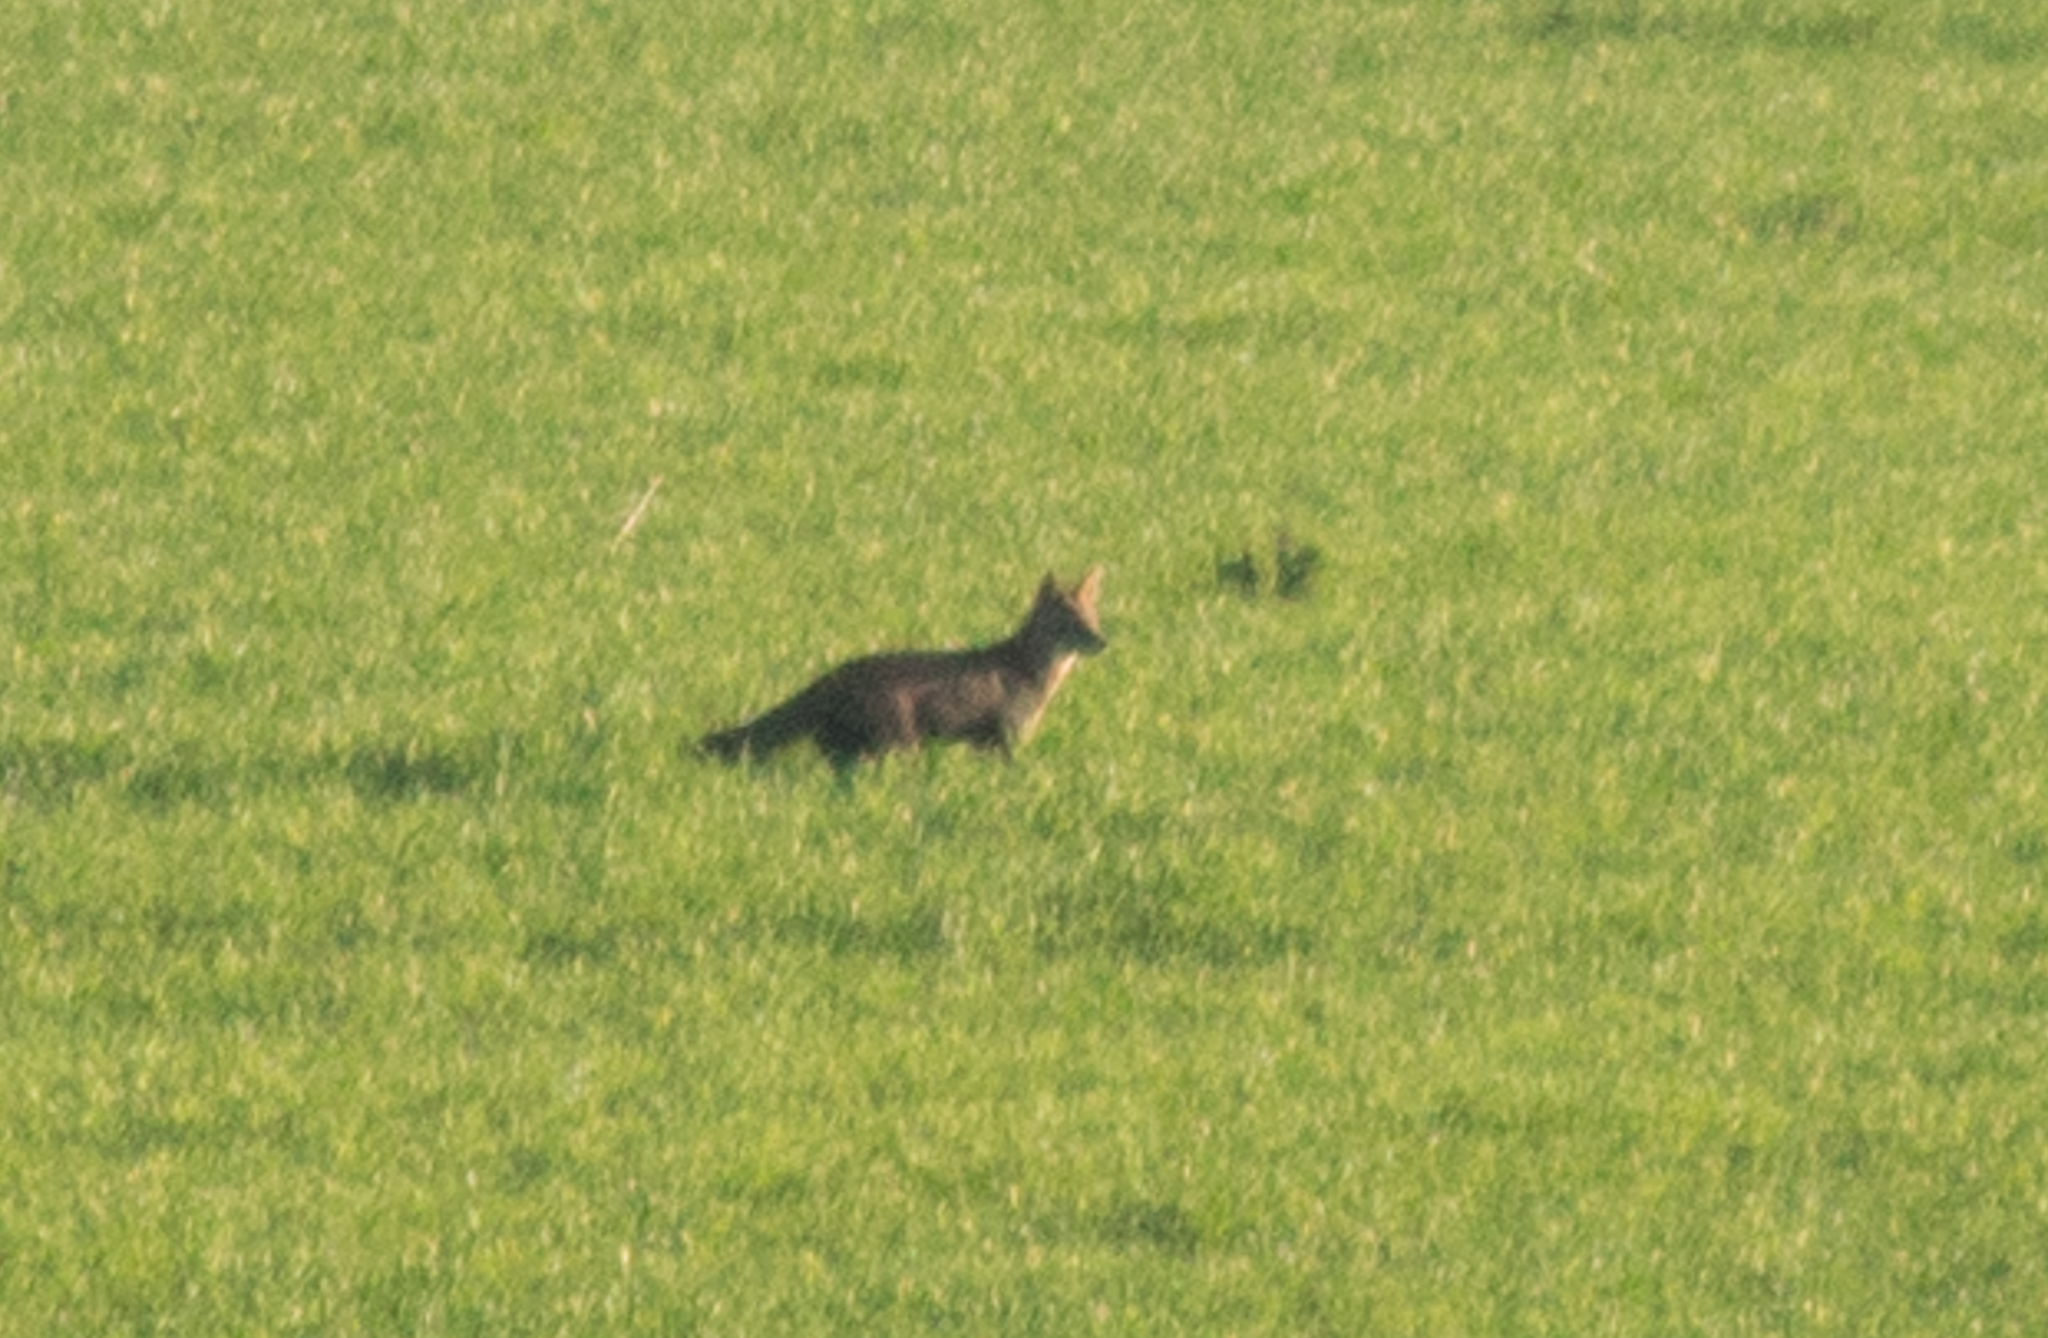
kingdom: Animalia
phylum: Chordata
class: Mammalia
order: Carnivora
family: Canidae
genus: Lycalopex
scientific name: Lycalopex gymnocercus
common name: Pampas fox
